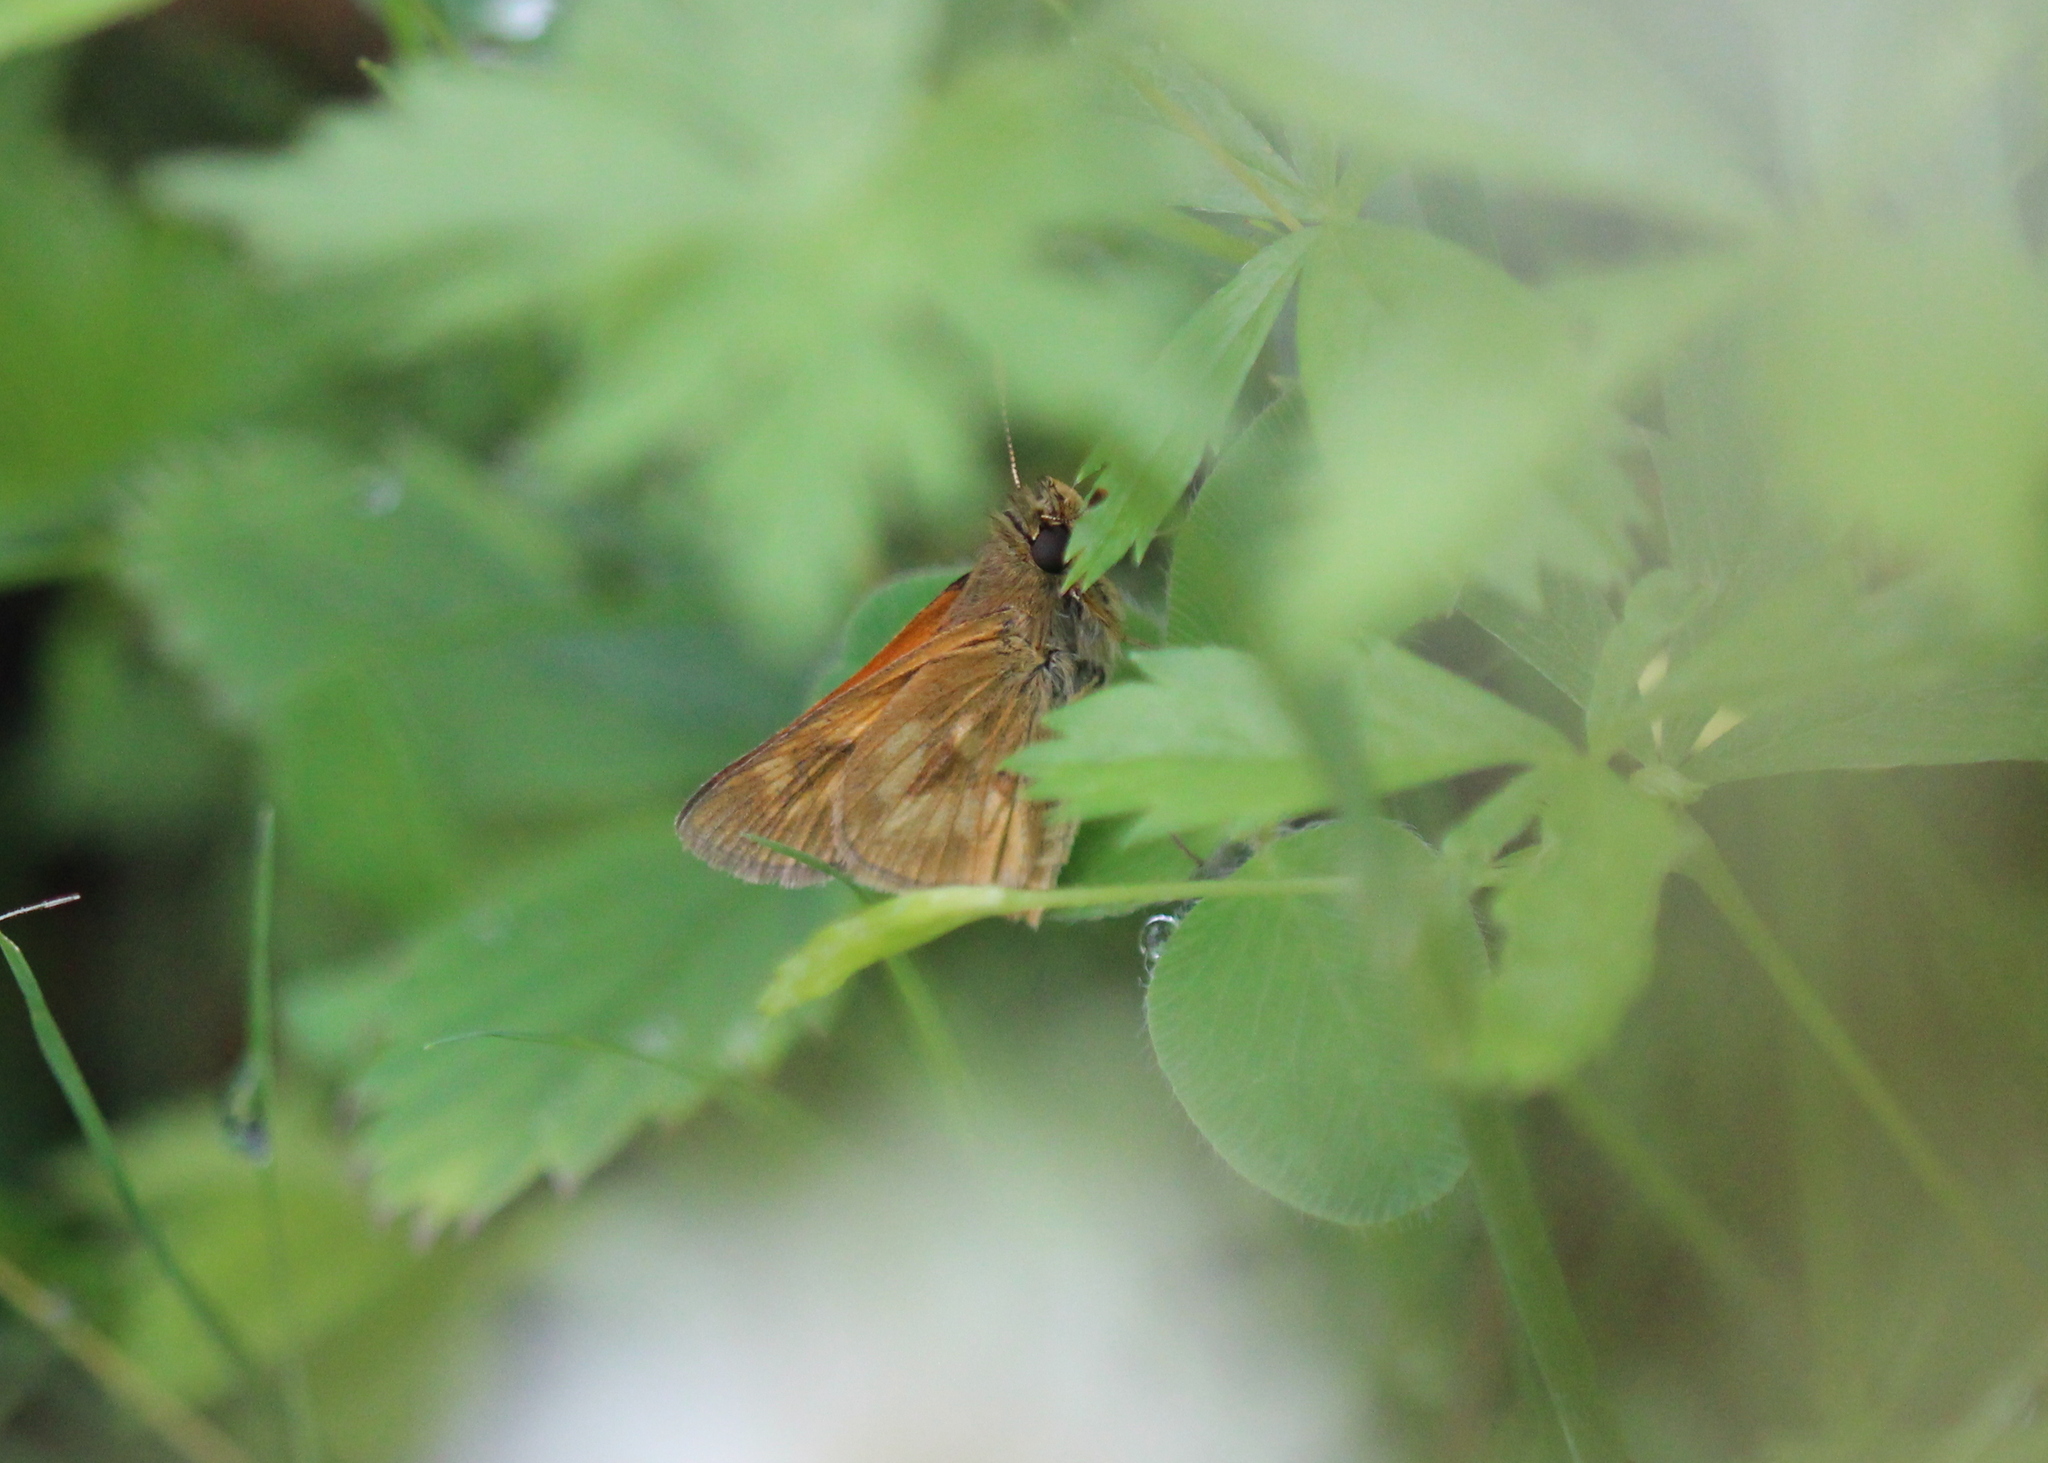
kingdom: Animalia
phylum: Arthropoda
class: Insecta
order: Lepidoptera
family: Hesperiidae
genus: Polites
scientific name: Polites mystic
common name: Long dash
